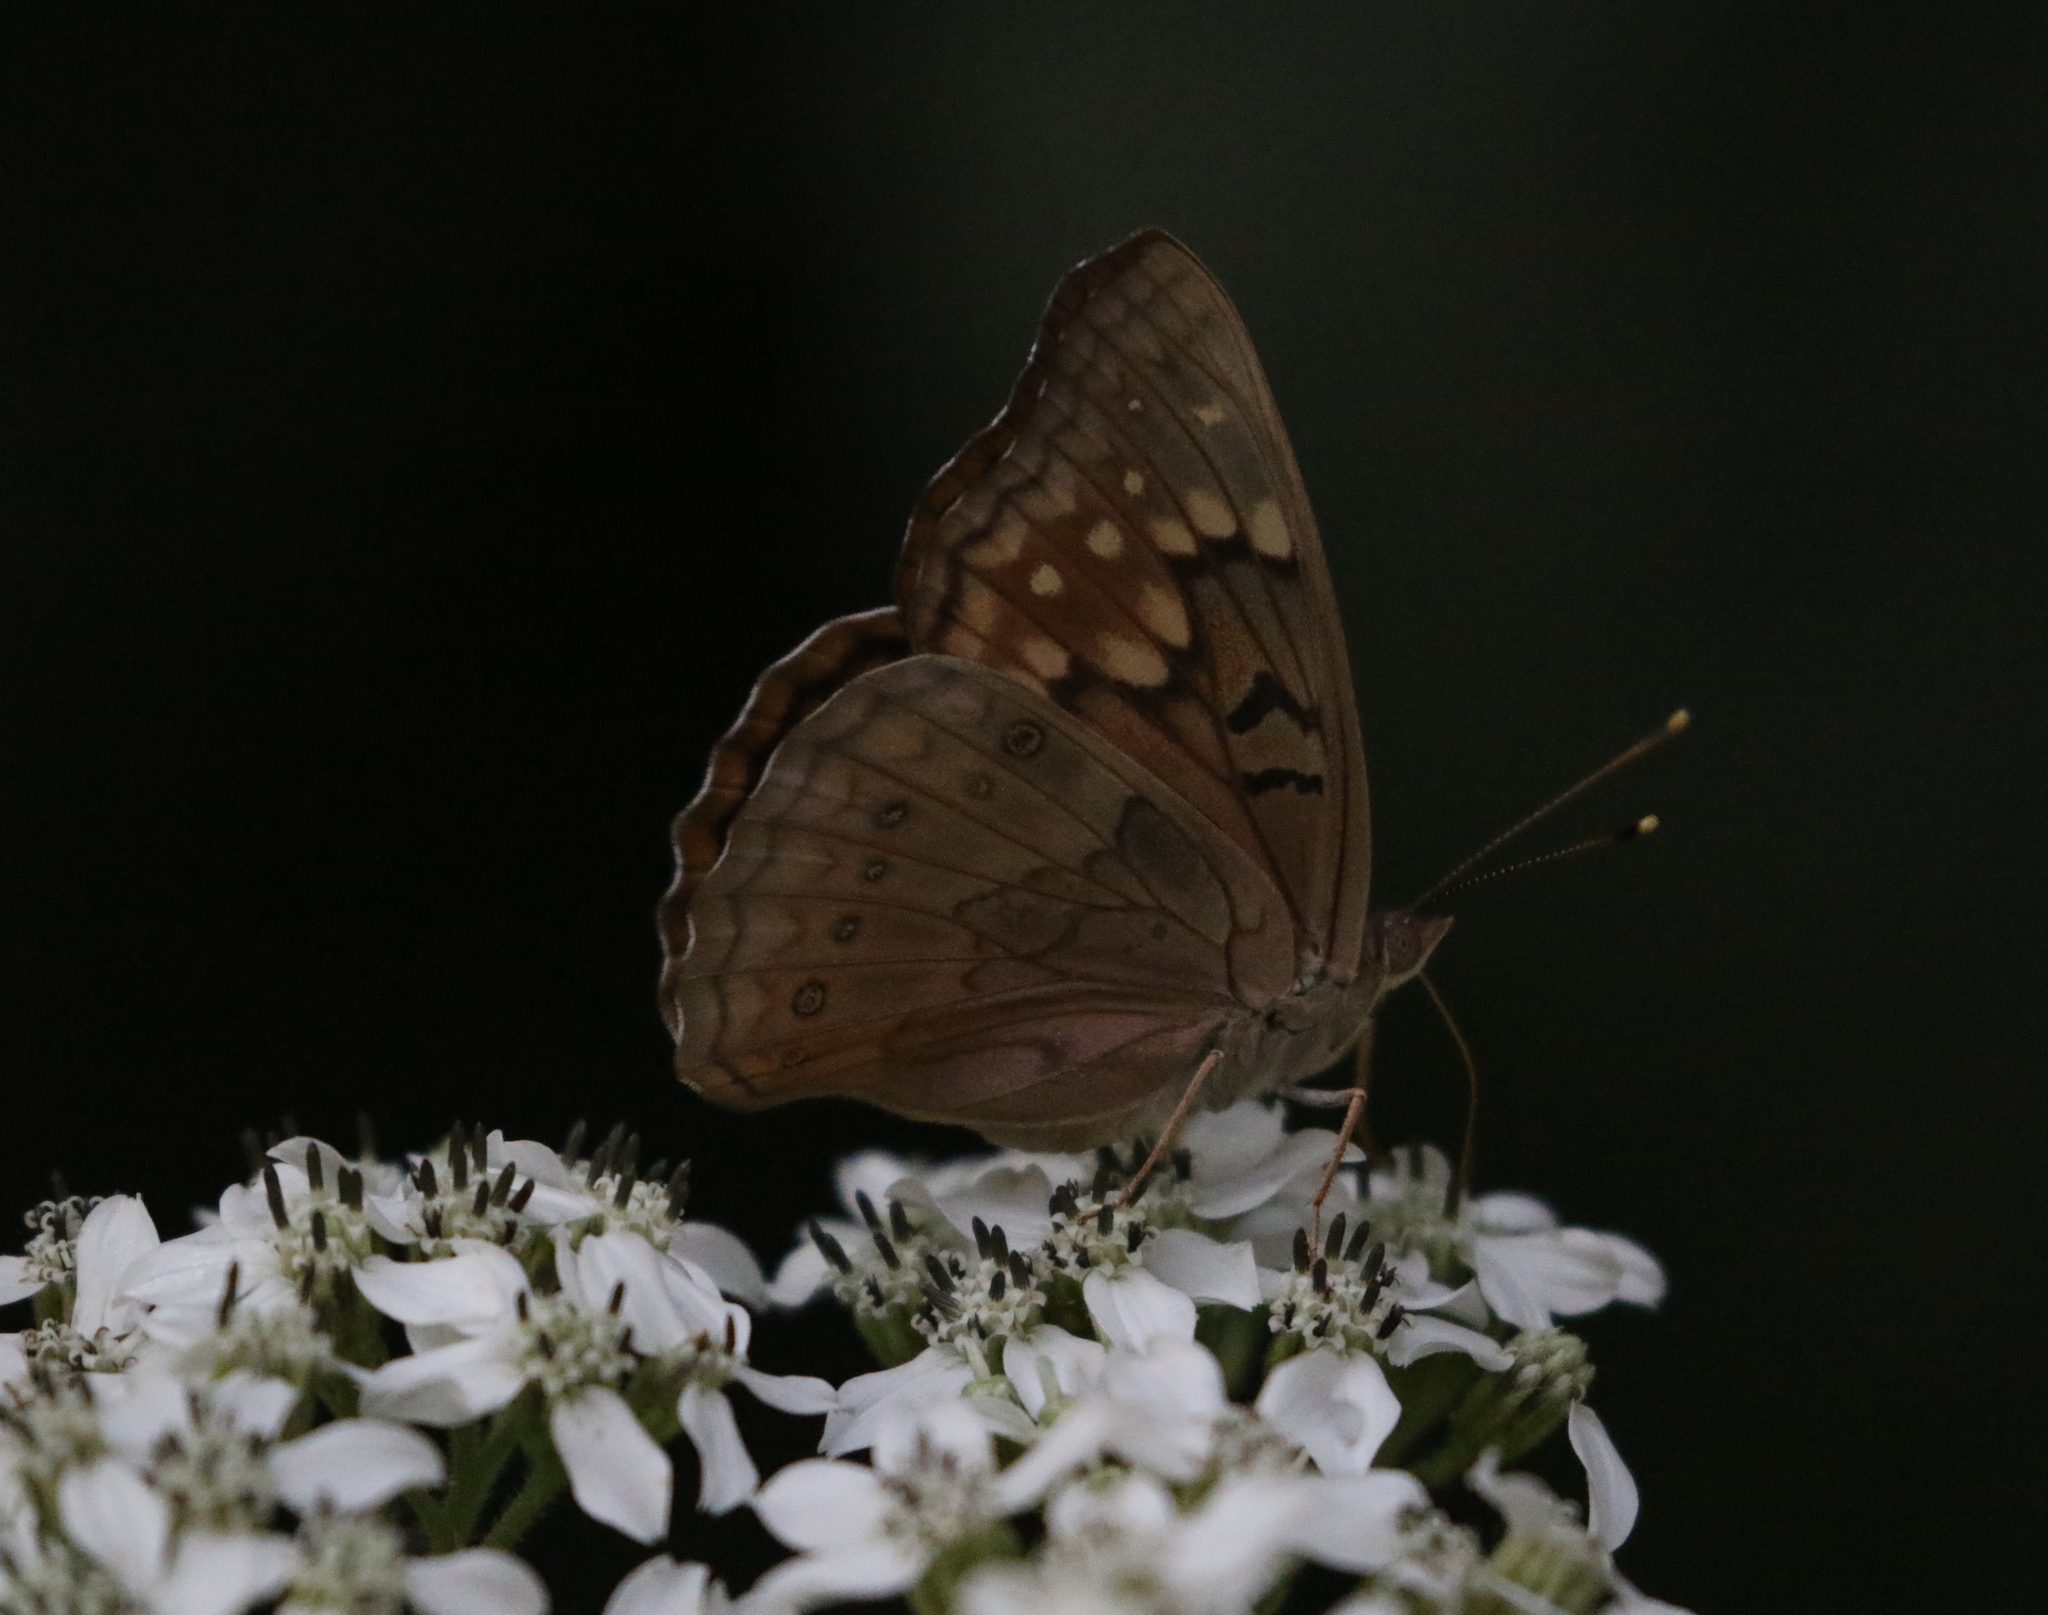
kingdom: Animalia
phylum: Arthropoda
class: Insecta
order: Lepidoptera
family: Nymphalidae
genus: Asterocampa
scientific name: Asterocampa clyton
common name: Tawny emperor
